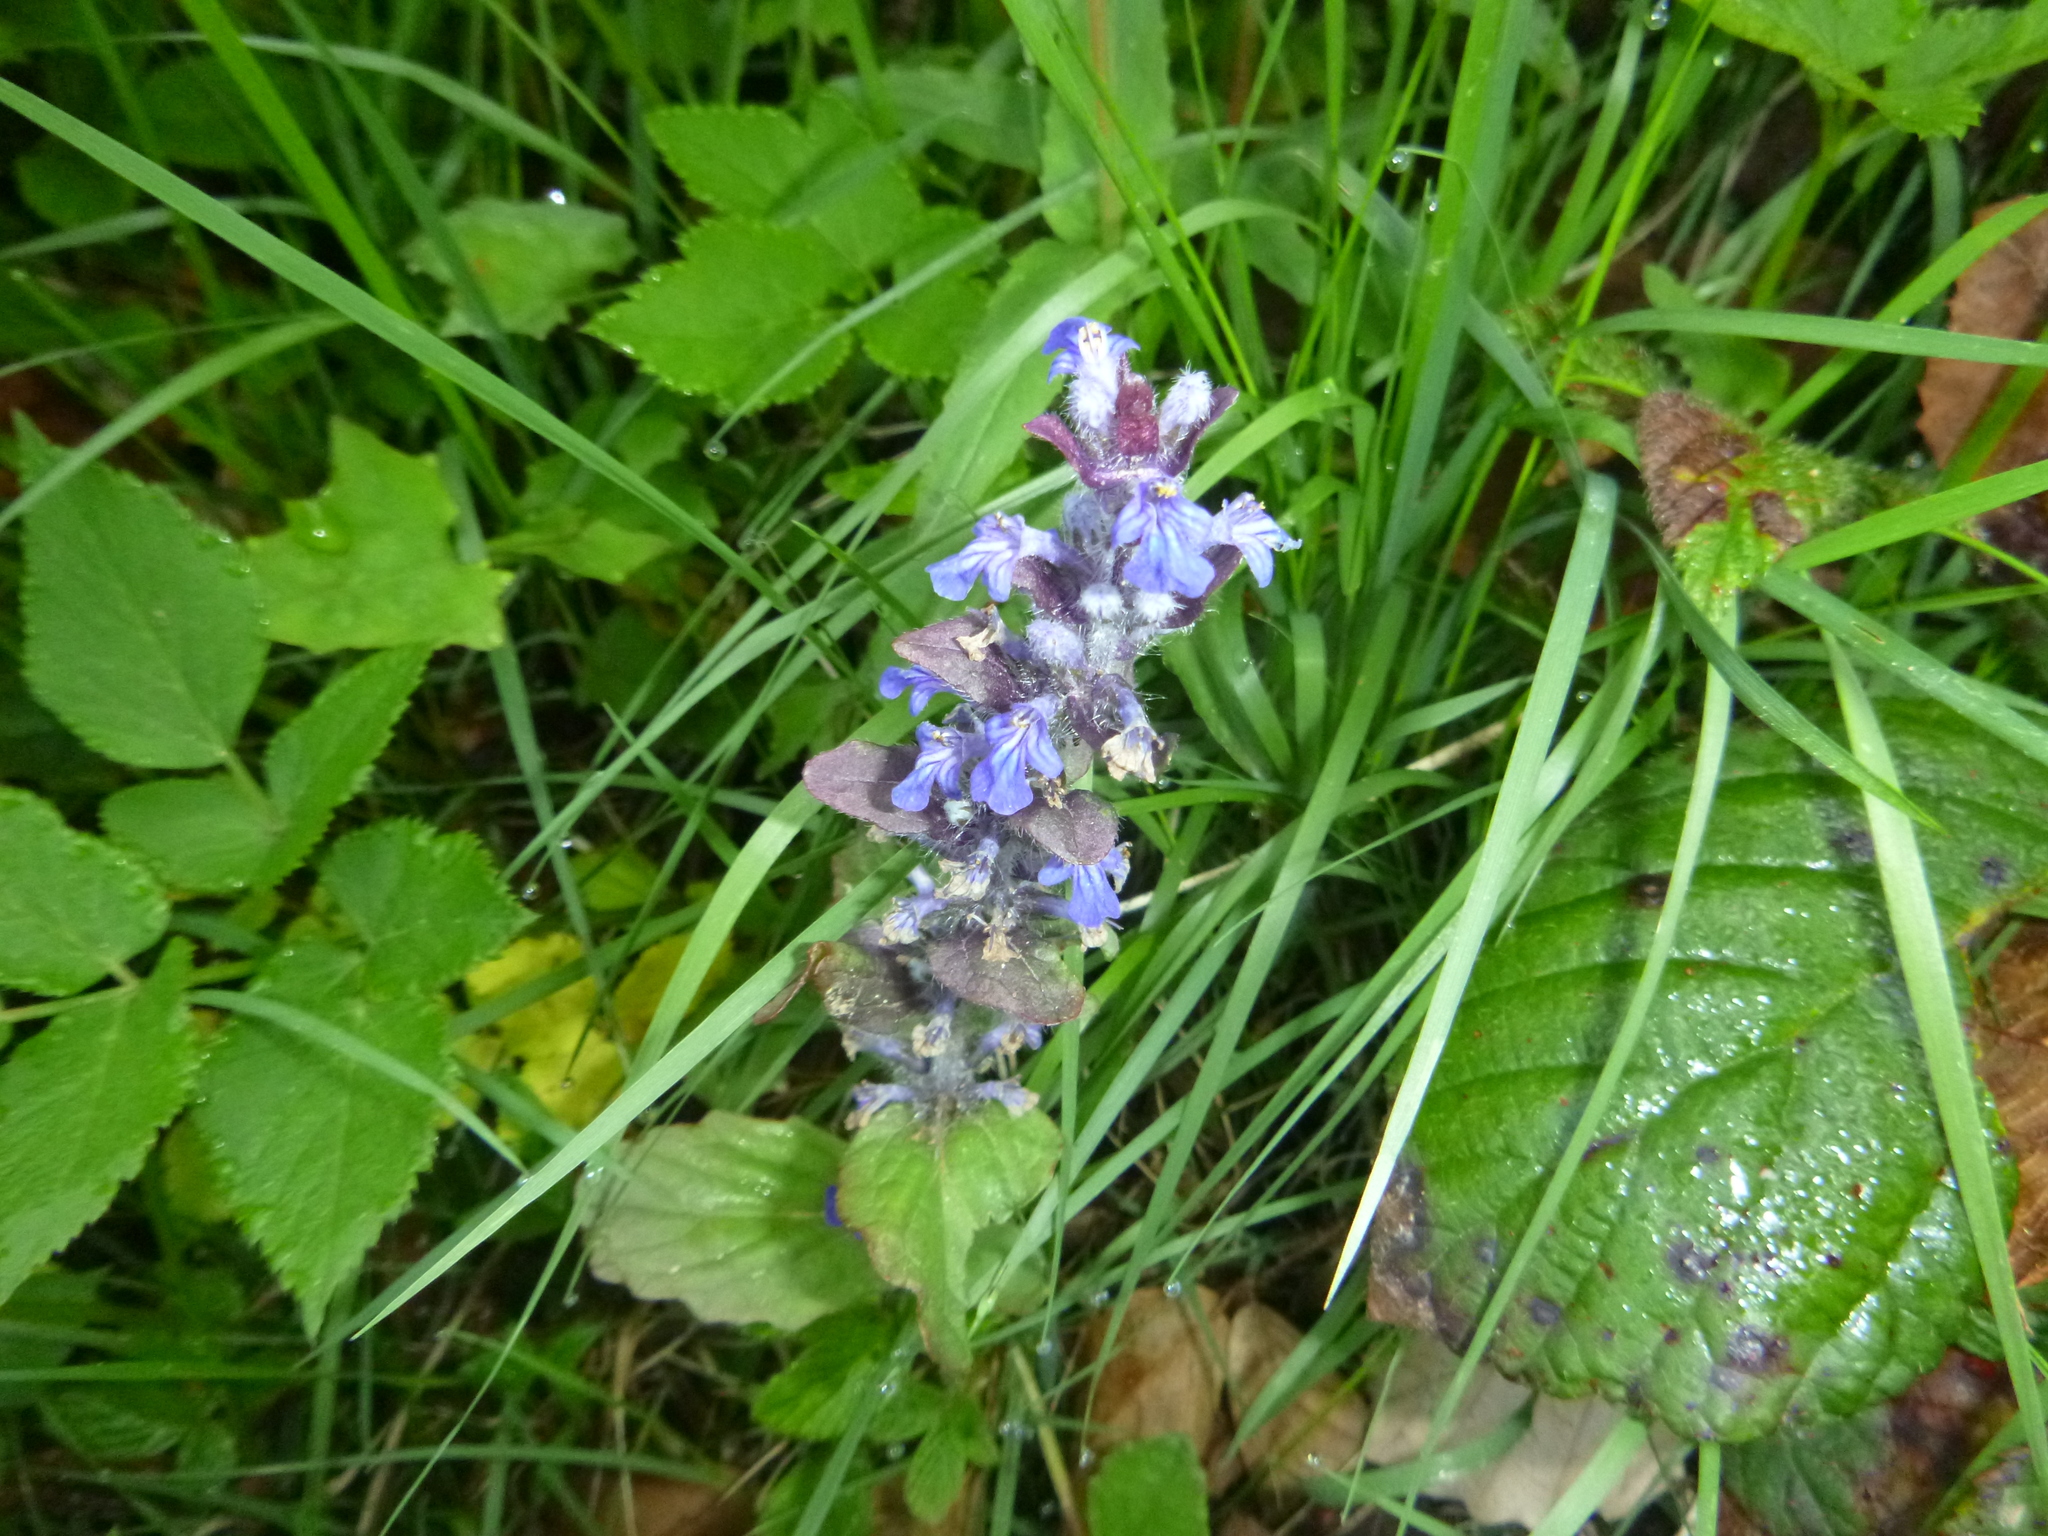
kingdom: Plantae
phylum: Tracheophyta
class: Magnoliopsida
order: Lamiales
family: Lamiaceae
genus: Ajuga
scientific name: Ajuga reptans
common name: Bugle
